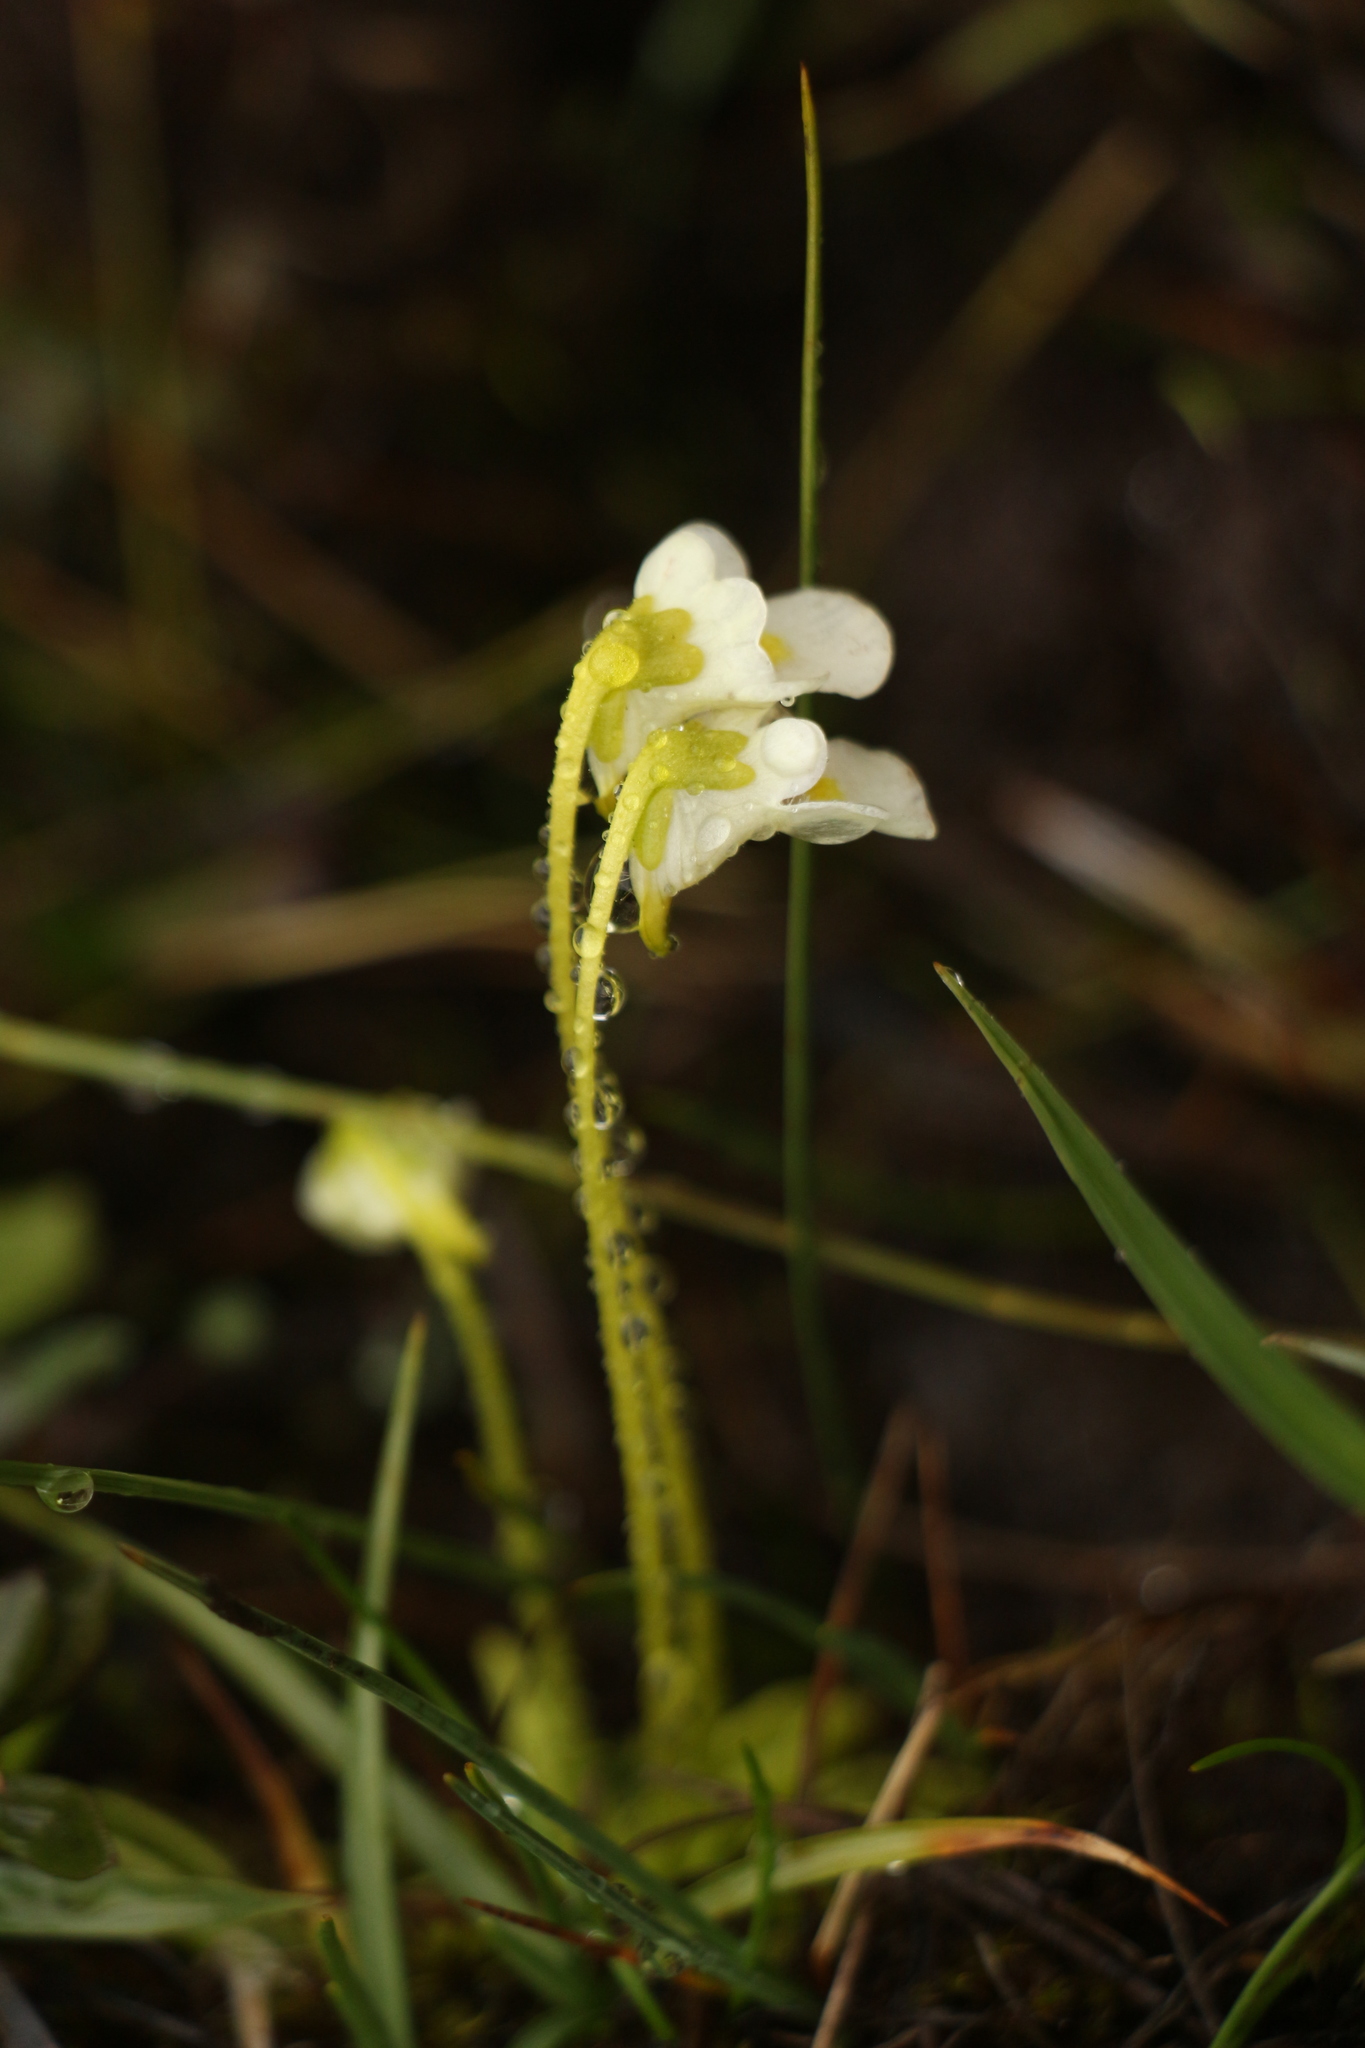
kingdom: Plantae
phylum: Tracheophyta
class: Magnoliopsida
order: Lamiales
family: Lentibulariaceae
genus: Pinguicula
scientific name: Pinguicula alpina
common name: Alpine butterwort
